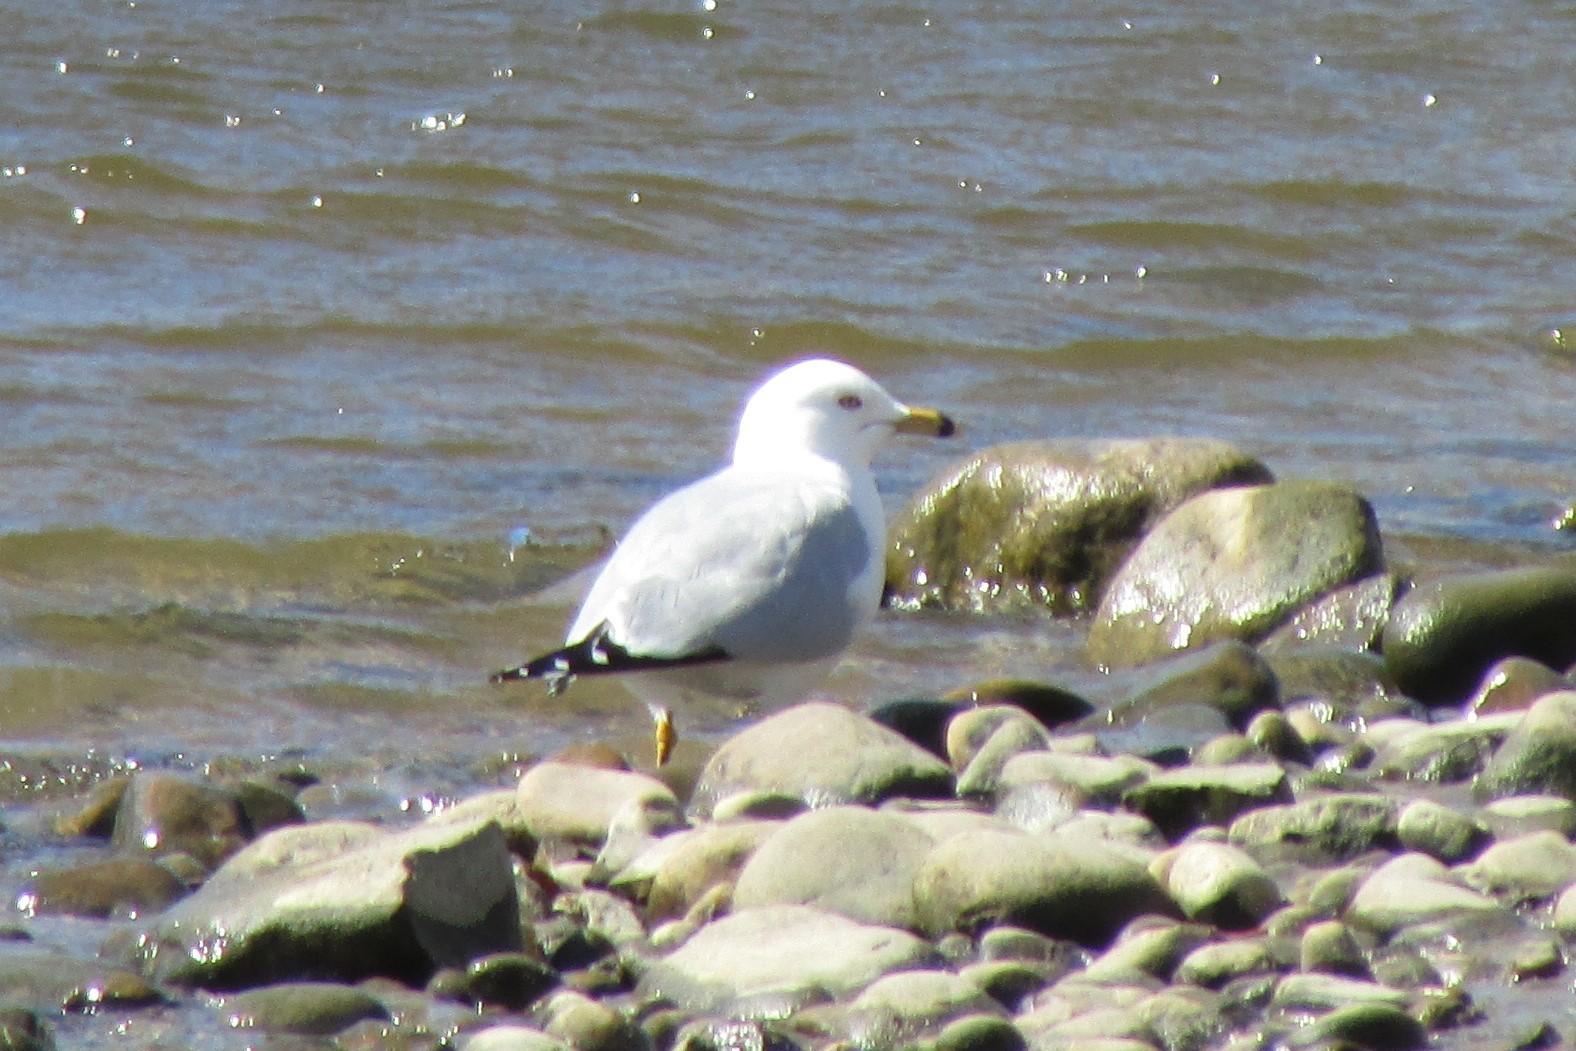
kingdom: Animalia
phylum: Chordata
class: Aves
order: Charadriiformes
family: Laridae
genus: Larus
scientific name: Larus delawarensis
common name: Ring-billed gull
